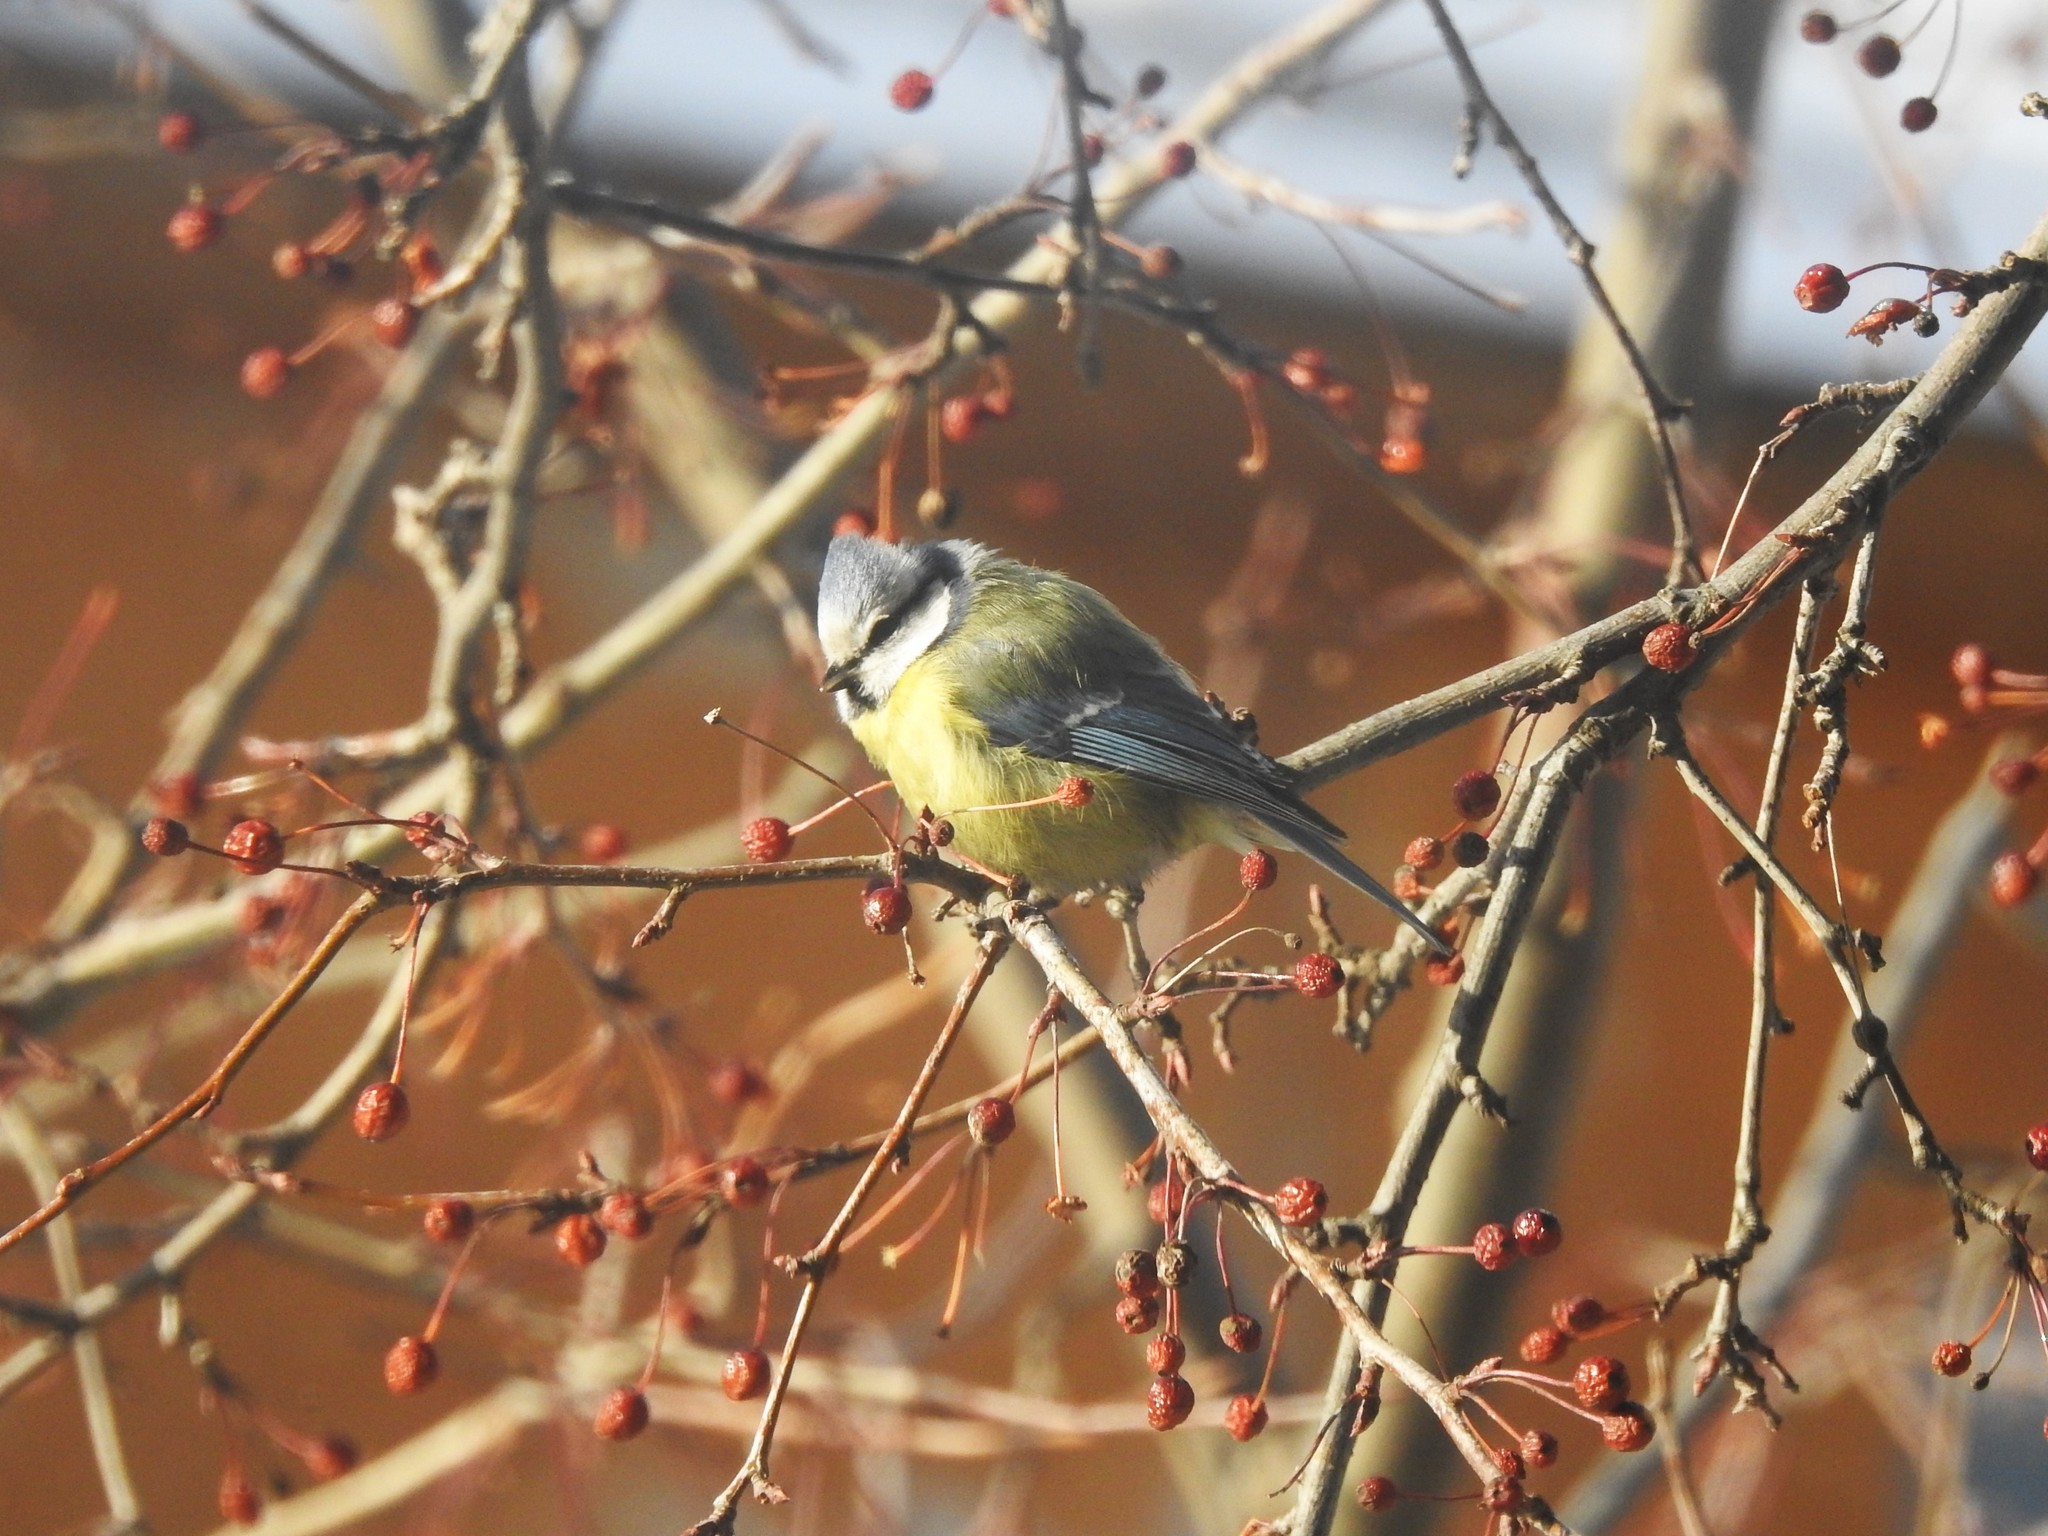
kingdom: Animalia
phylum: Chordata
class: Aves
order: Passeriformes
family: Paridae
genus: Cyanistes
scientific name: Cyanistes caeruleus
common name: Eurasian blue tit
